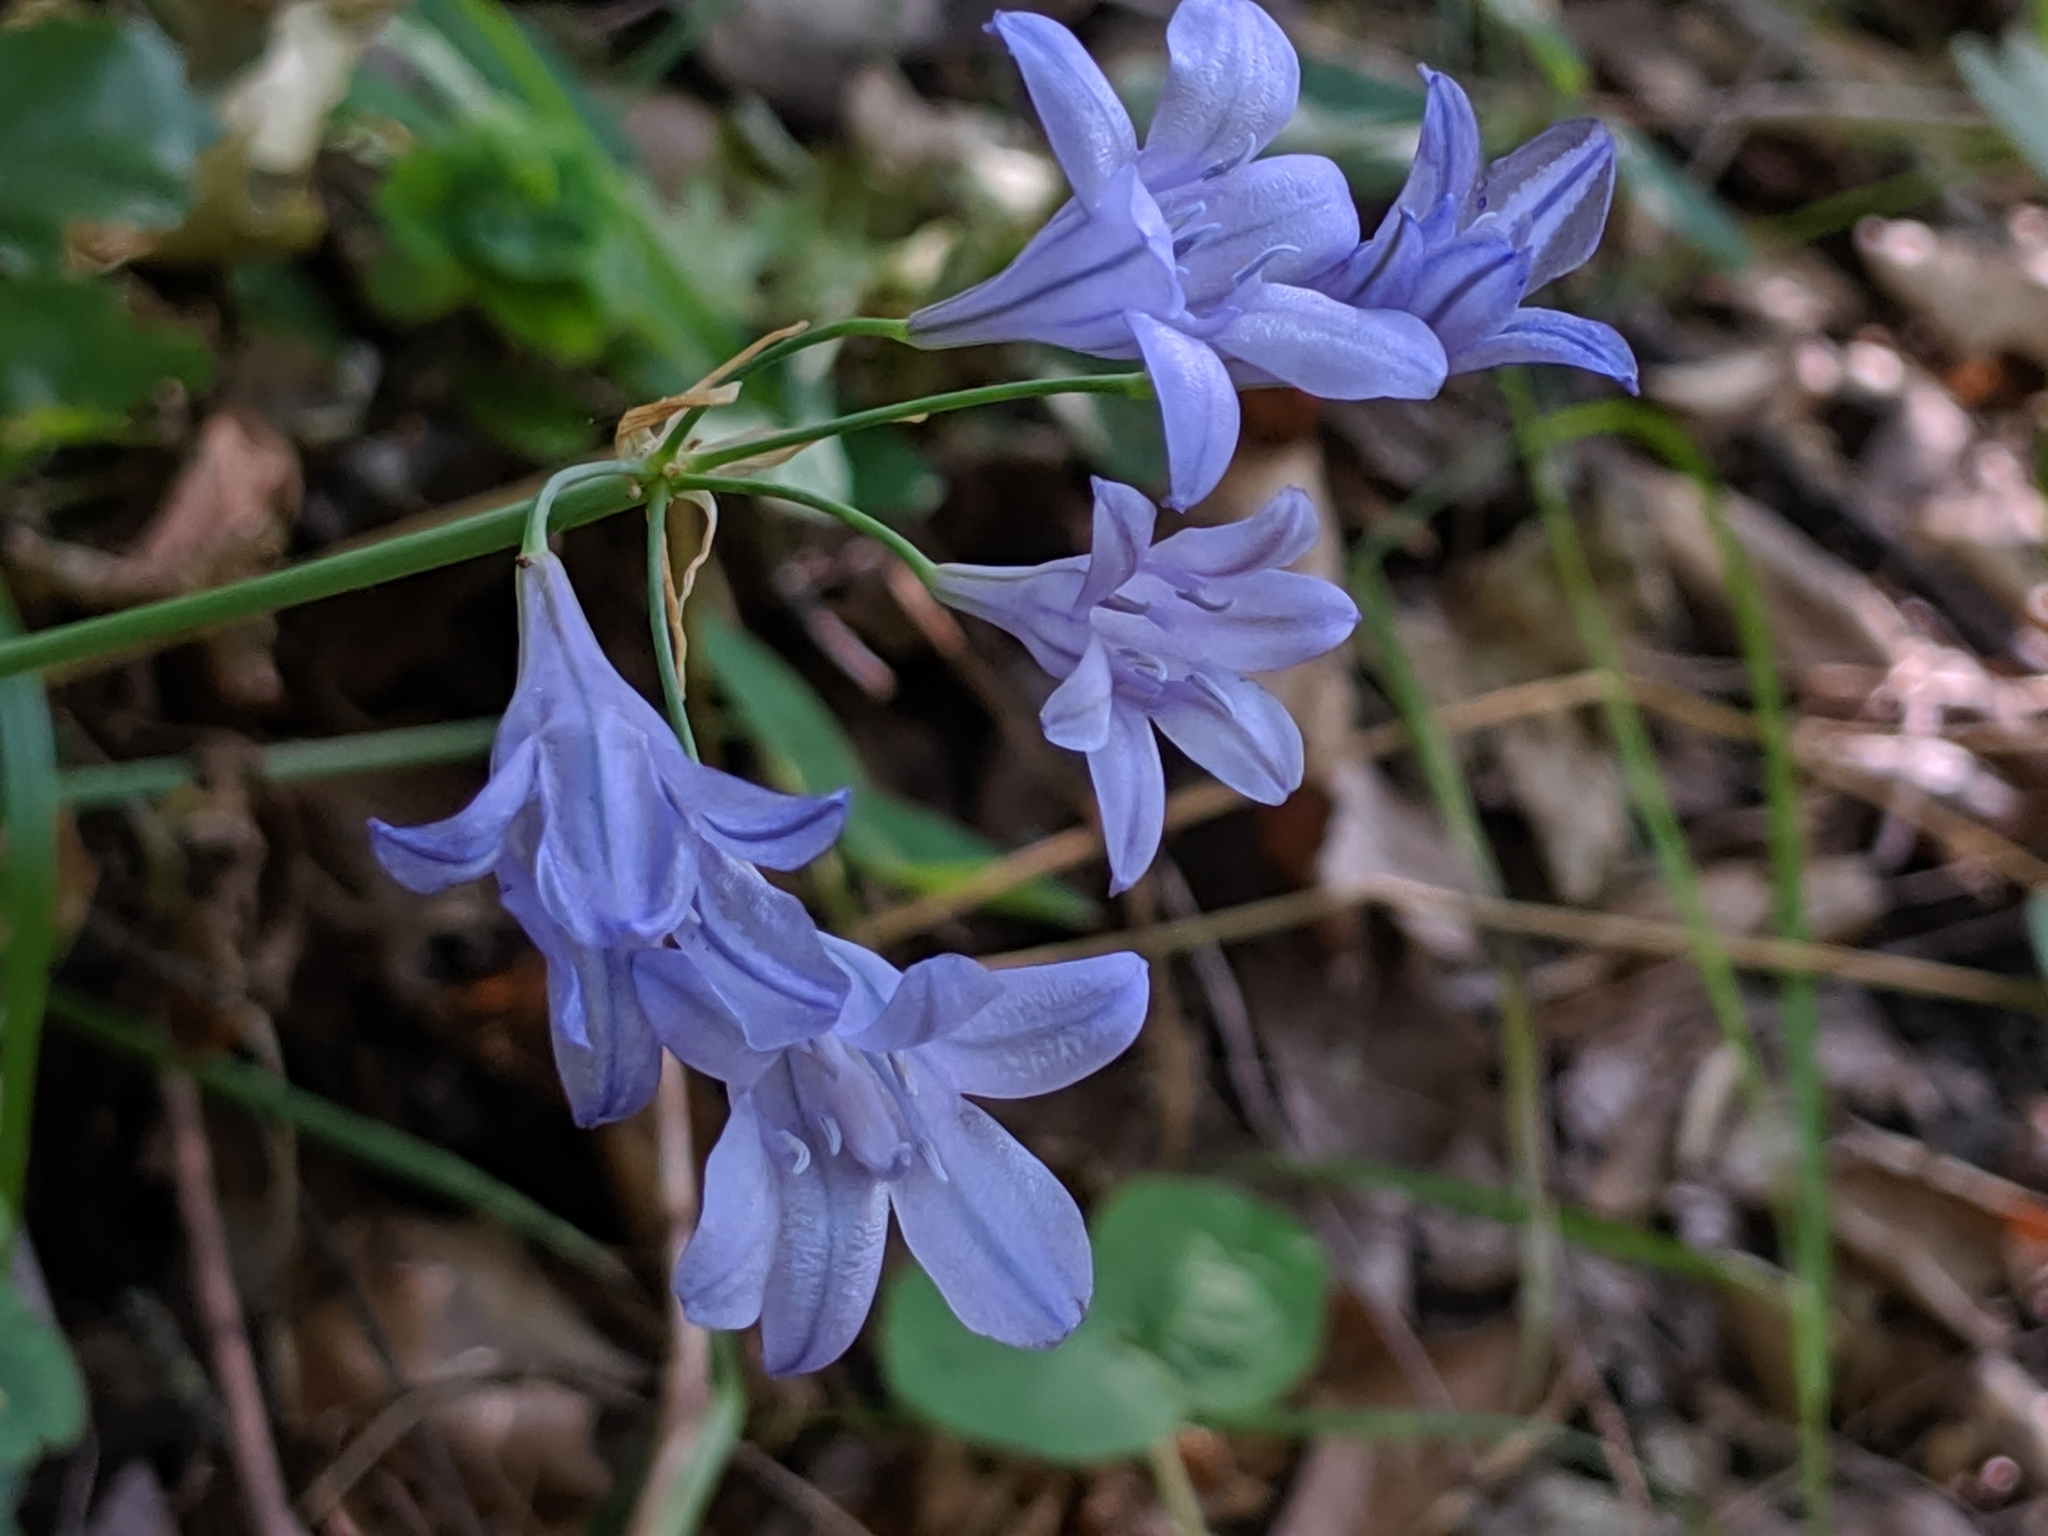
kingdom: Plantae
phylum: Tracheophyta
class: Liliopsida
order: Asparagales
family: Asparagaceae
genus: Triteleia
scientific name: Triteleia laxa
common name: Triplet-lily
